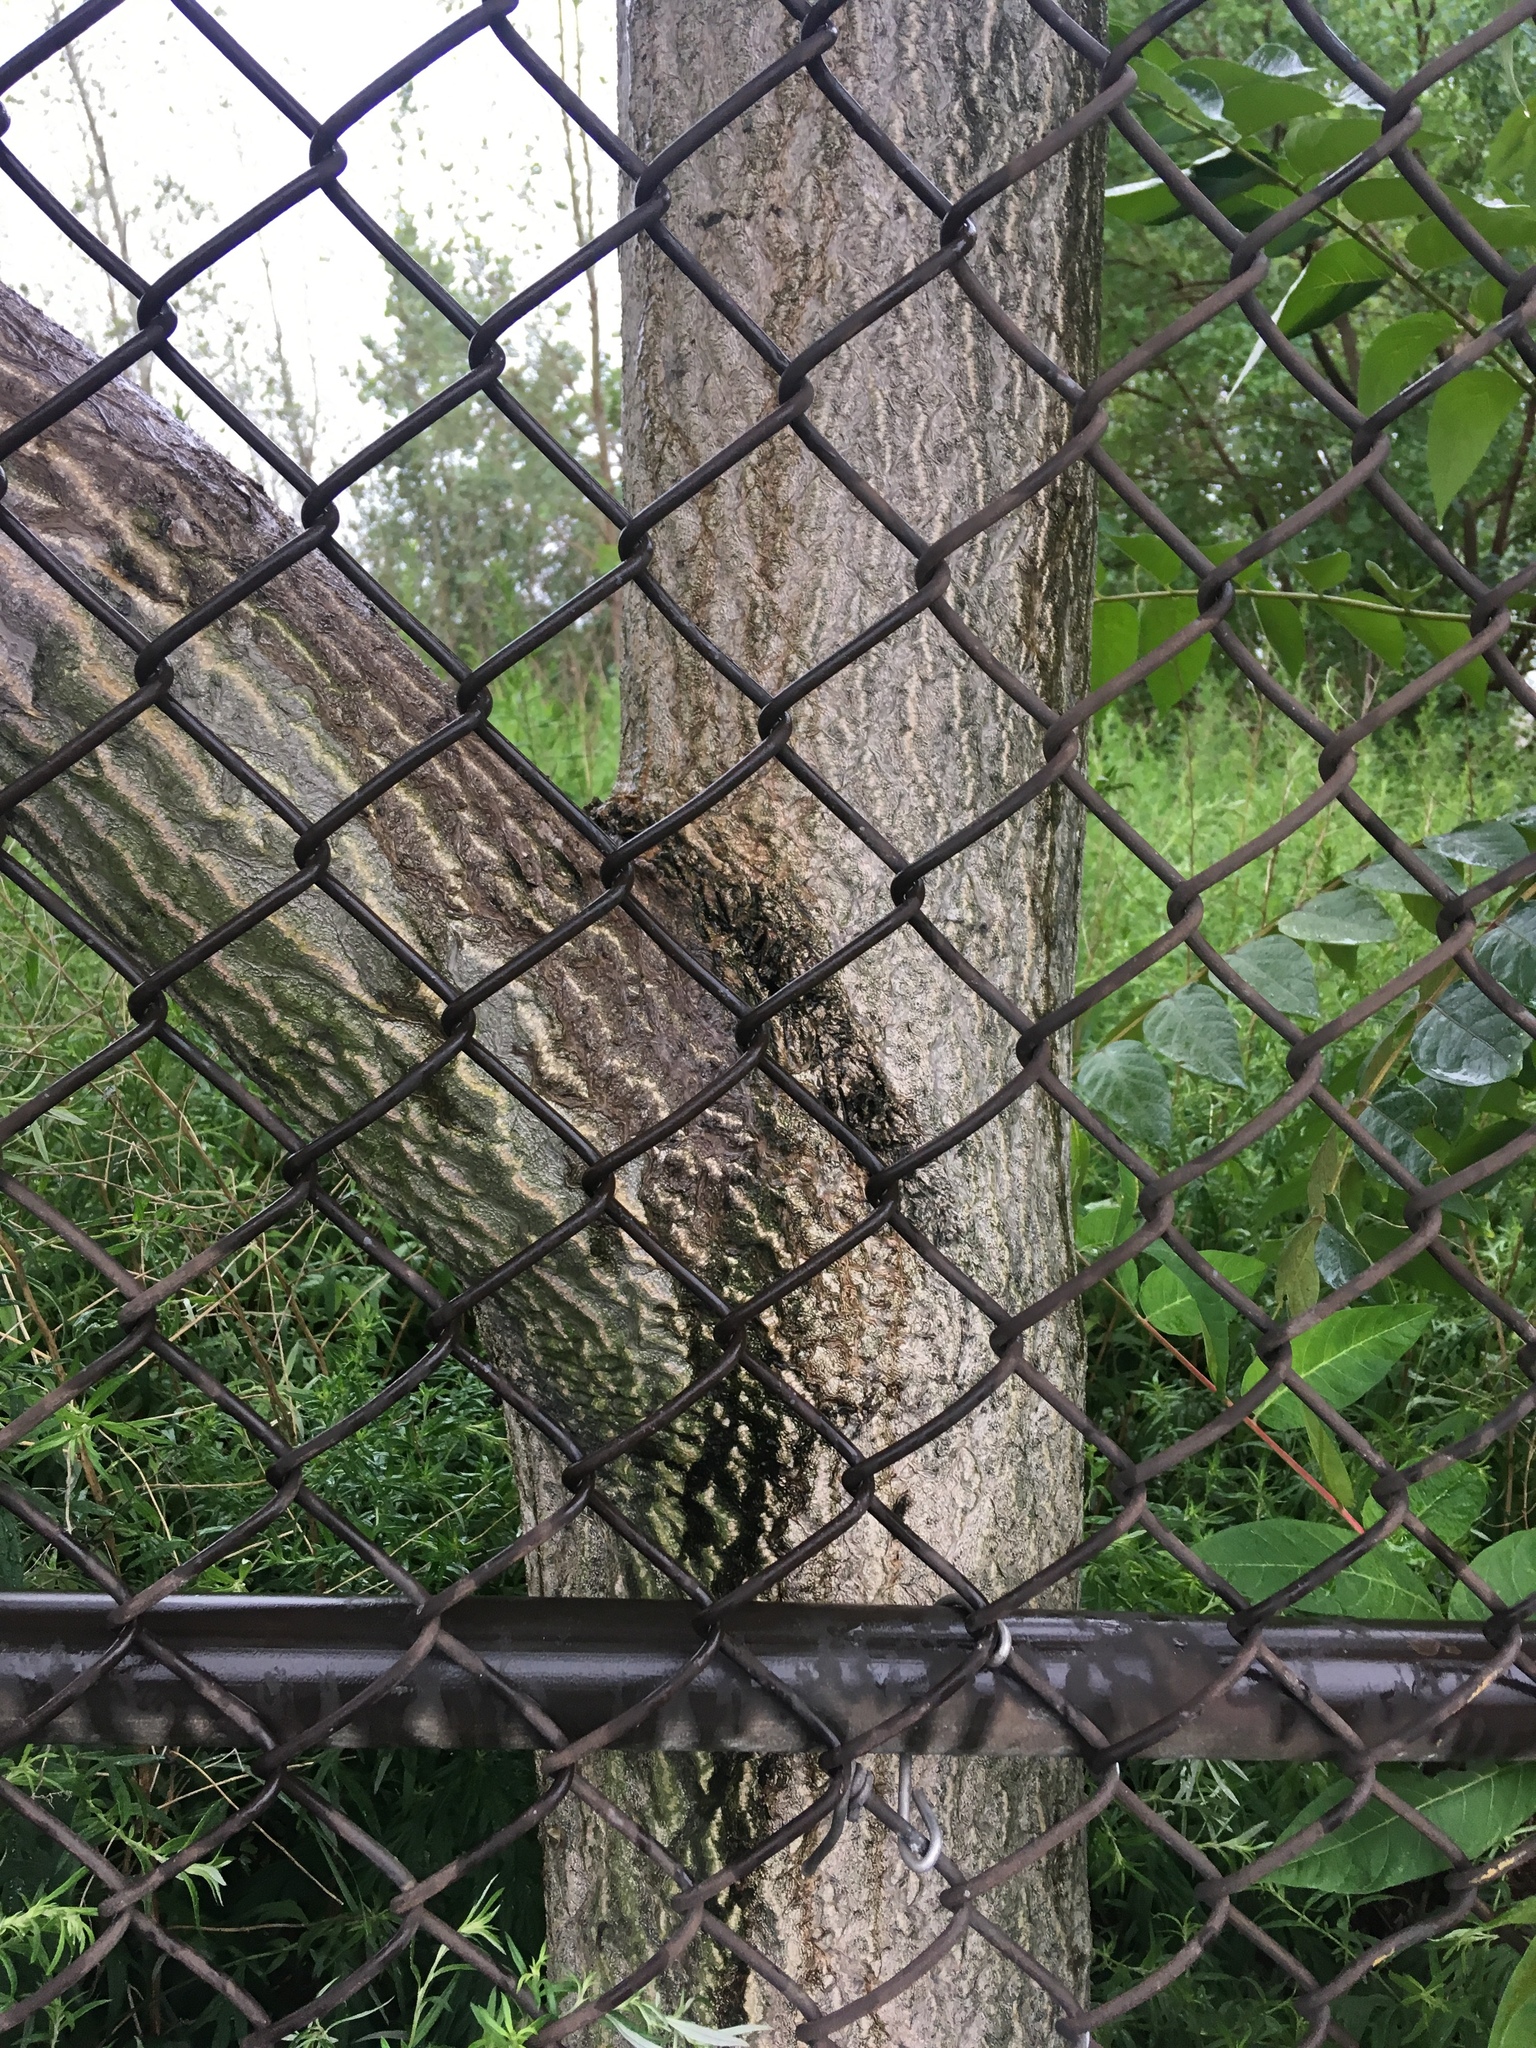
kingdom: Plantae
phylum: Tracheophyta
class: Magnoliopsida
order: Sapindales
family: Simaroubaceae
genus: Ailanthus
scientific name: Ailanthus altissima
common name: Tree-of-heaven
